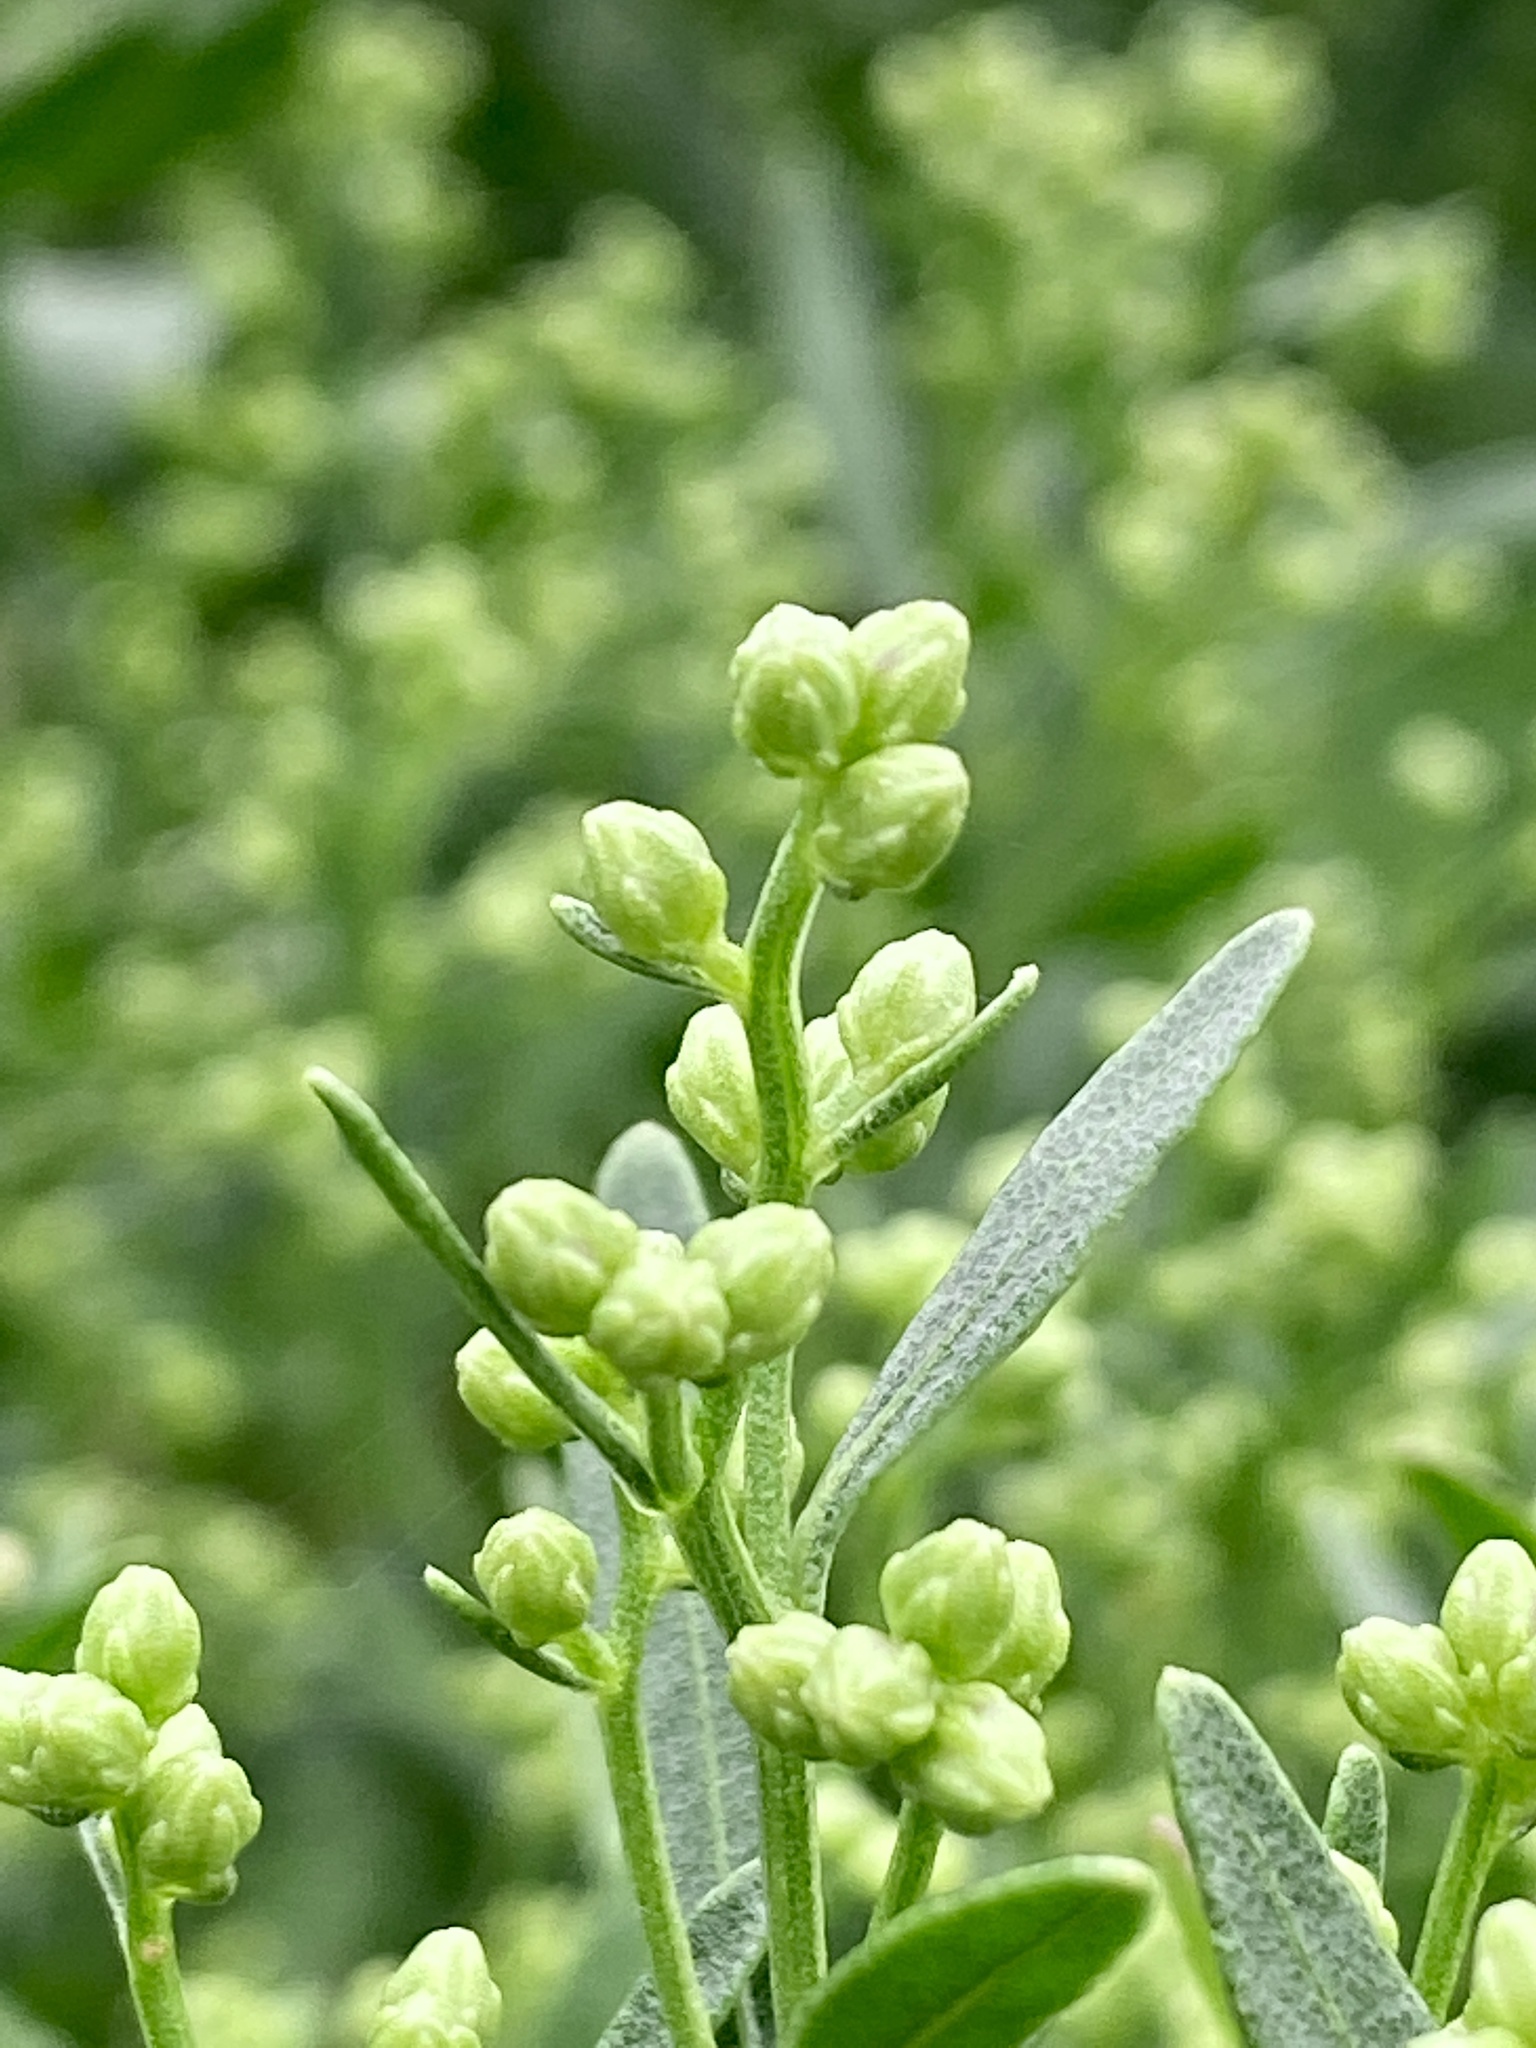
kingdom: Plantae
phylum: Tracheophyta
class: Magnoliopsida
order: Asterales
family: Asteraceae
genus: Baccharis
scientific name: Baccharis halimifolia
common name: Eastern baccharis
